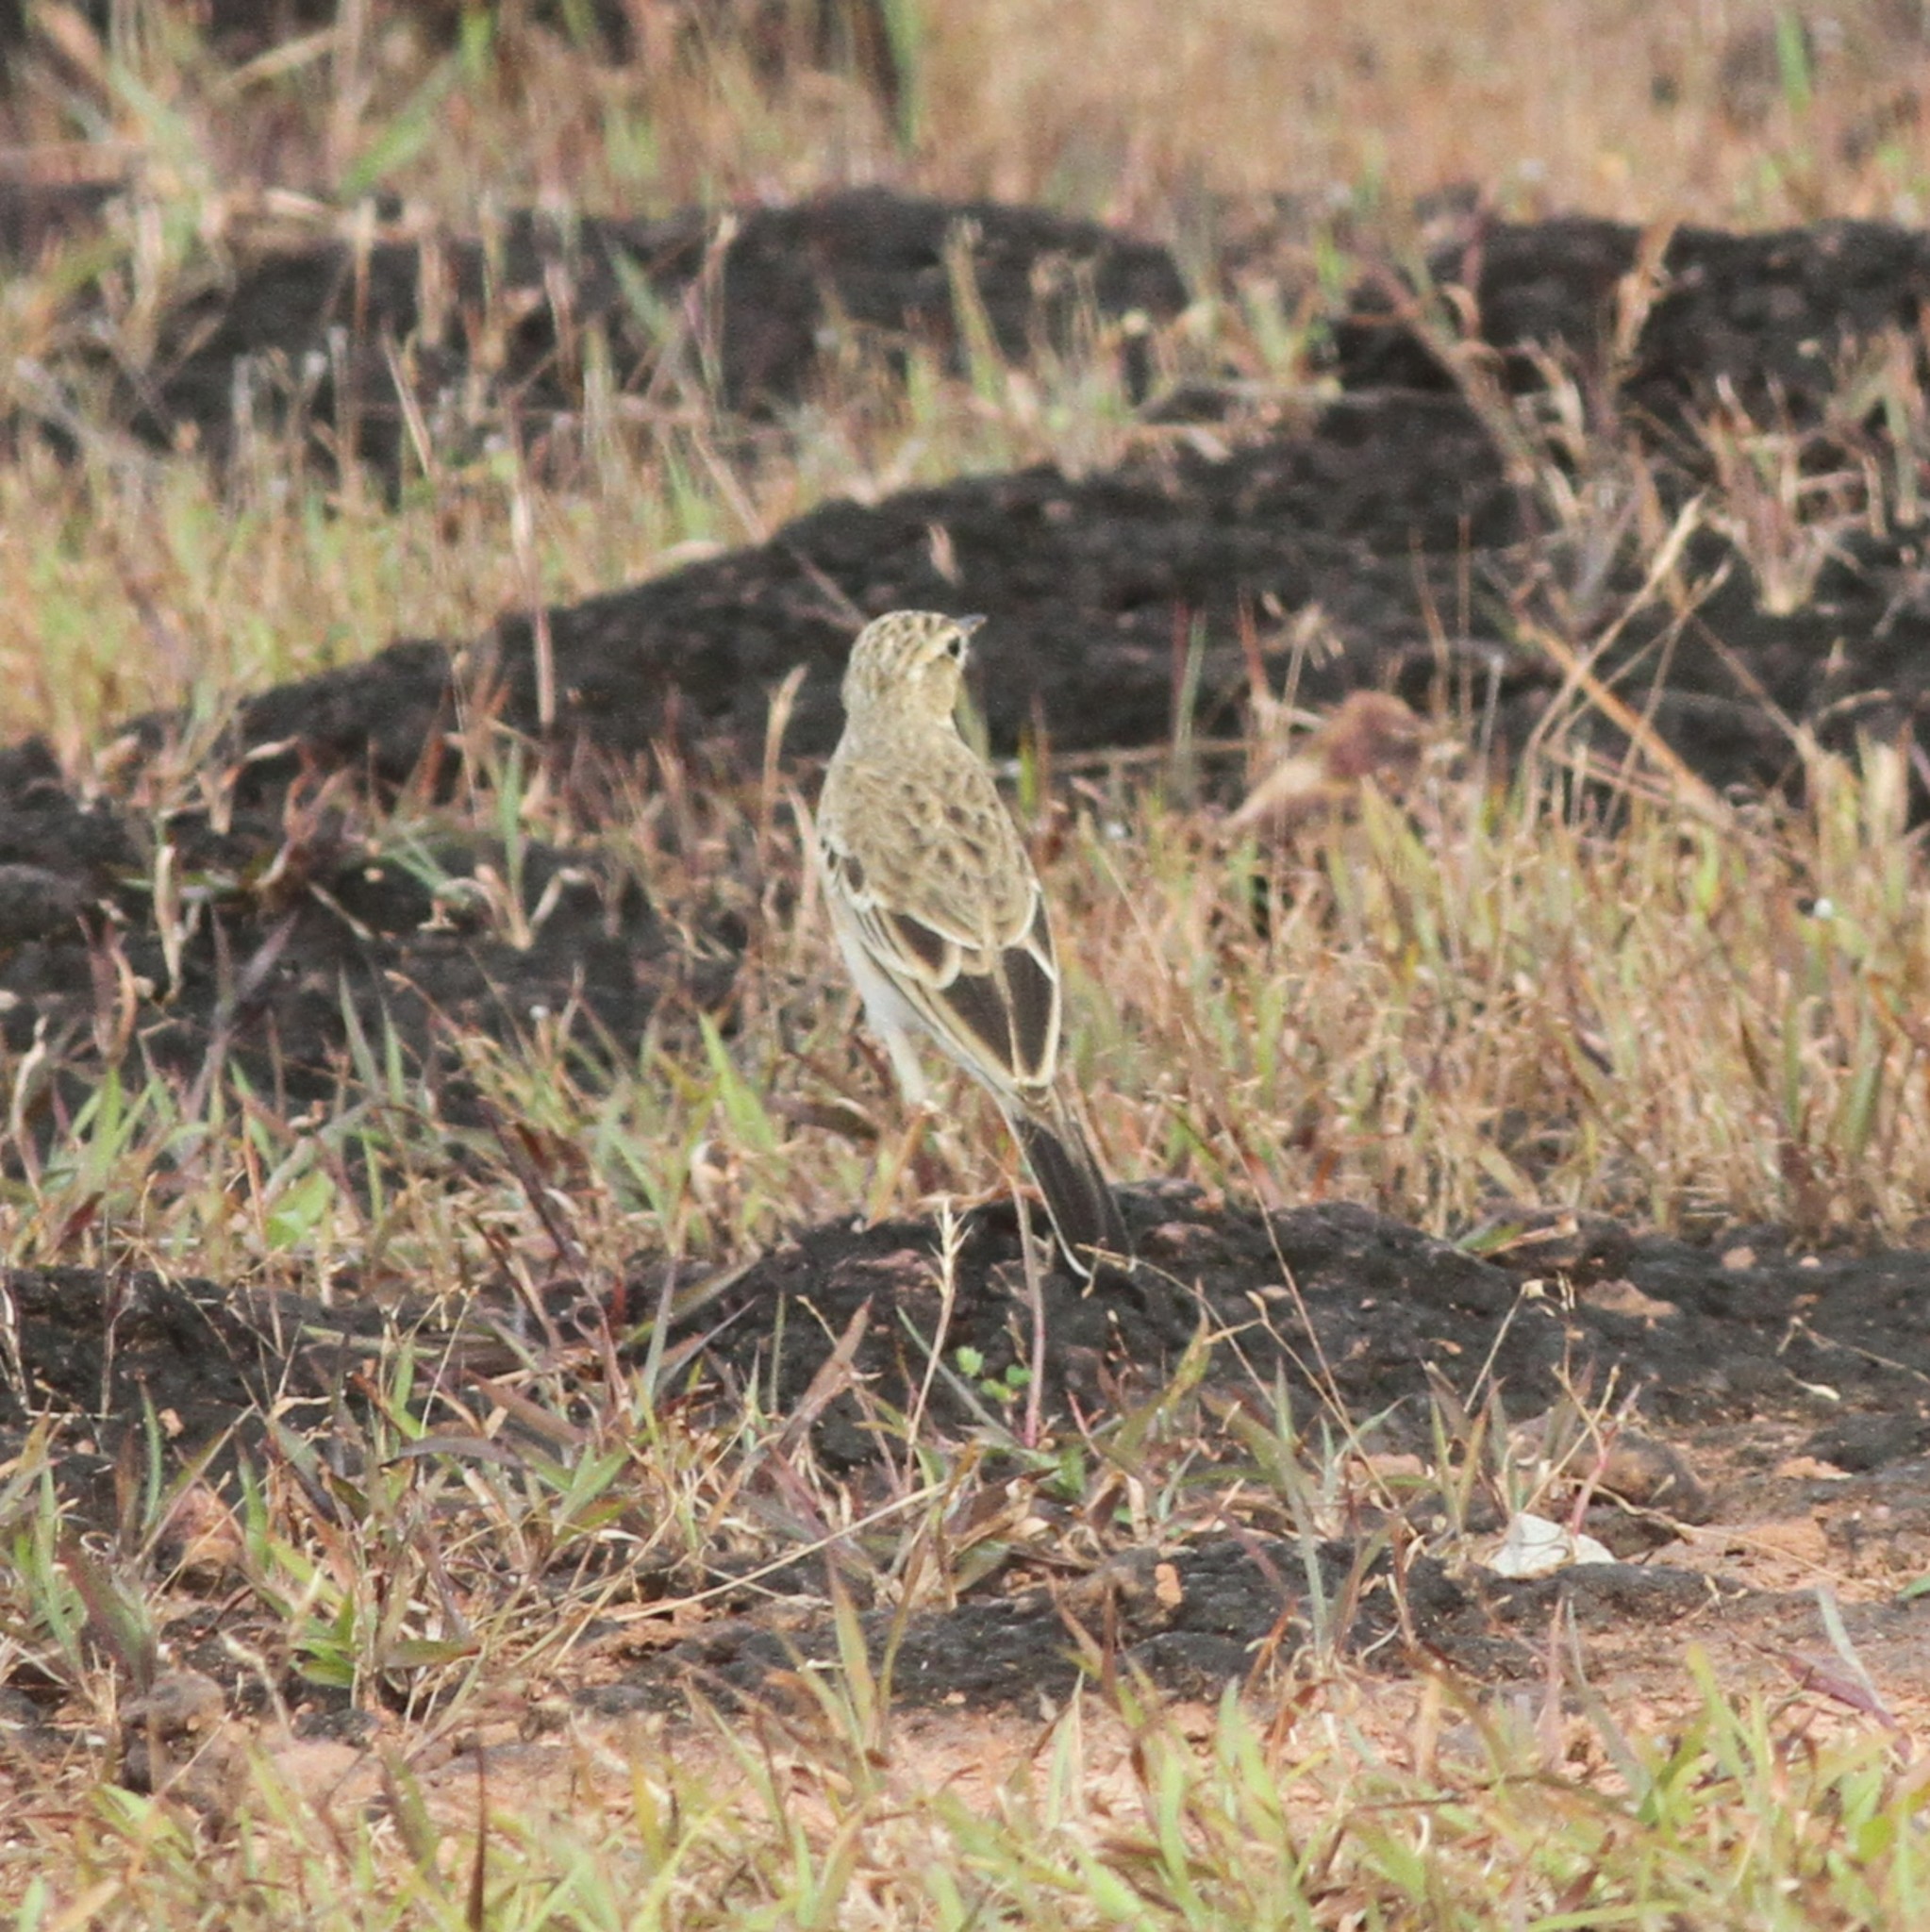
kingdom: Animalia
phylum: Chordata
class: Aves
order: Passeriformes
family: Motacillidae
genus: Anthus
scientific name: Anthus rufulus
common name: Paddyfield pipit
